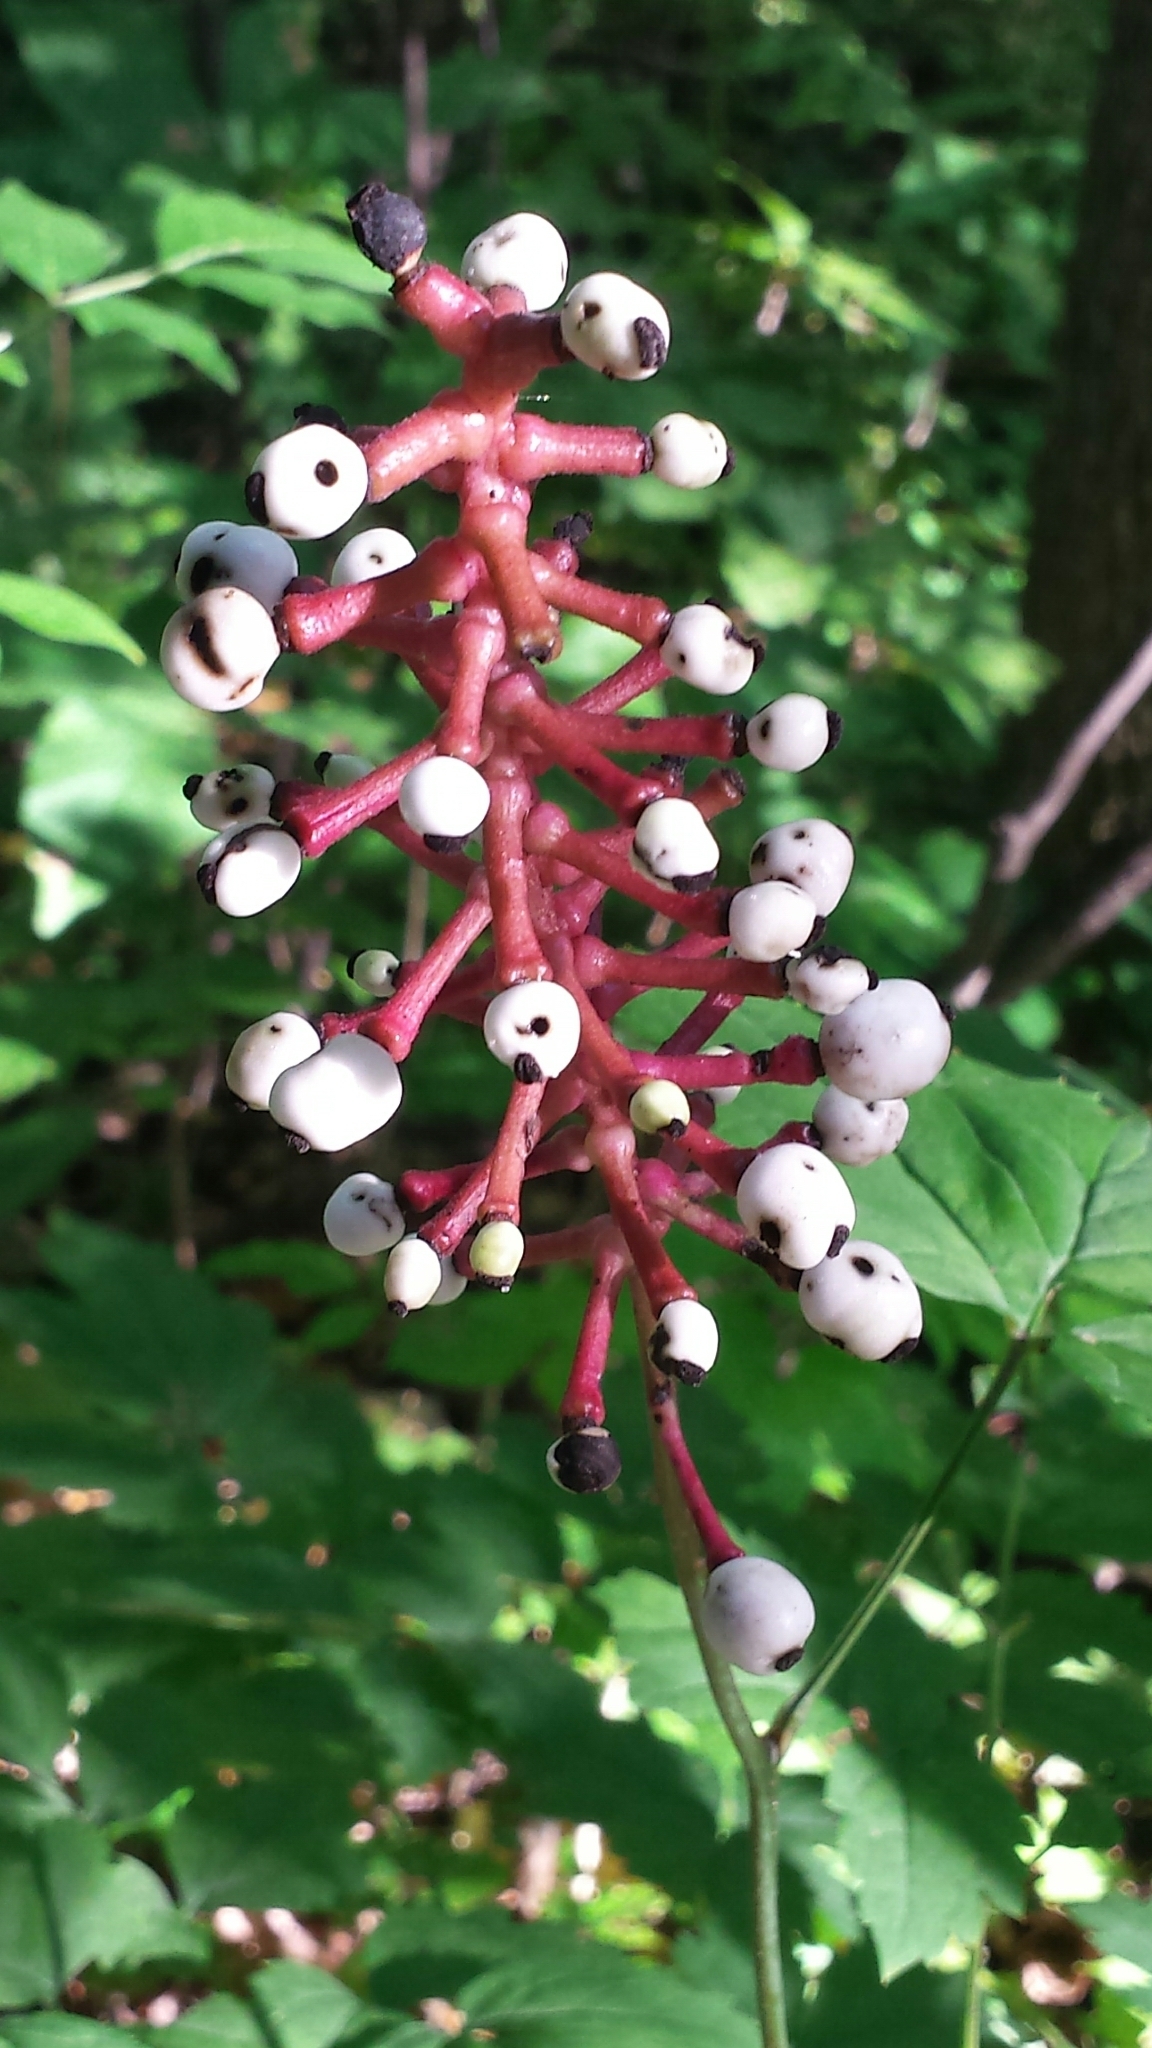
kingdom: Plantae
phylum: Tracheophyta
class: Magnoliopsida
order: Ranunculales
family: Ranunculaceae
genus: Actaea
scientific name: Actaea pachypoda
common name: Doll's-eyes
